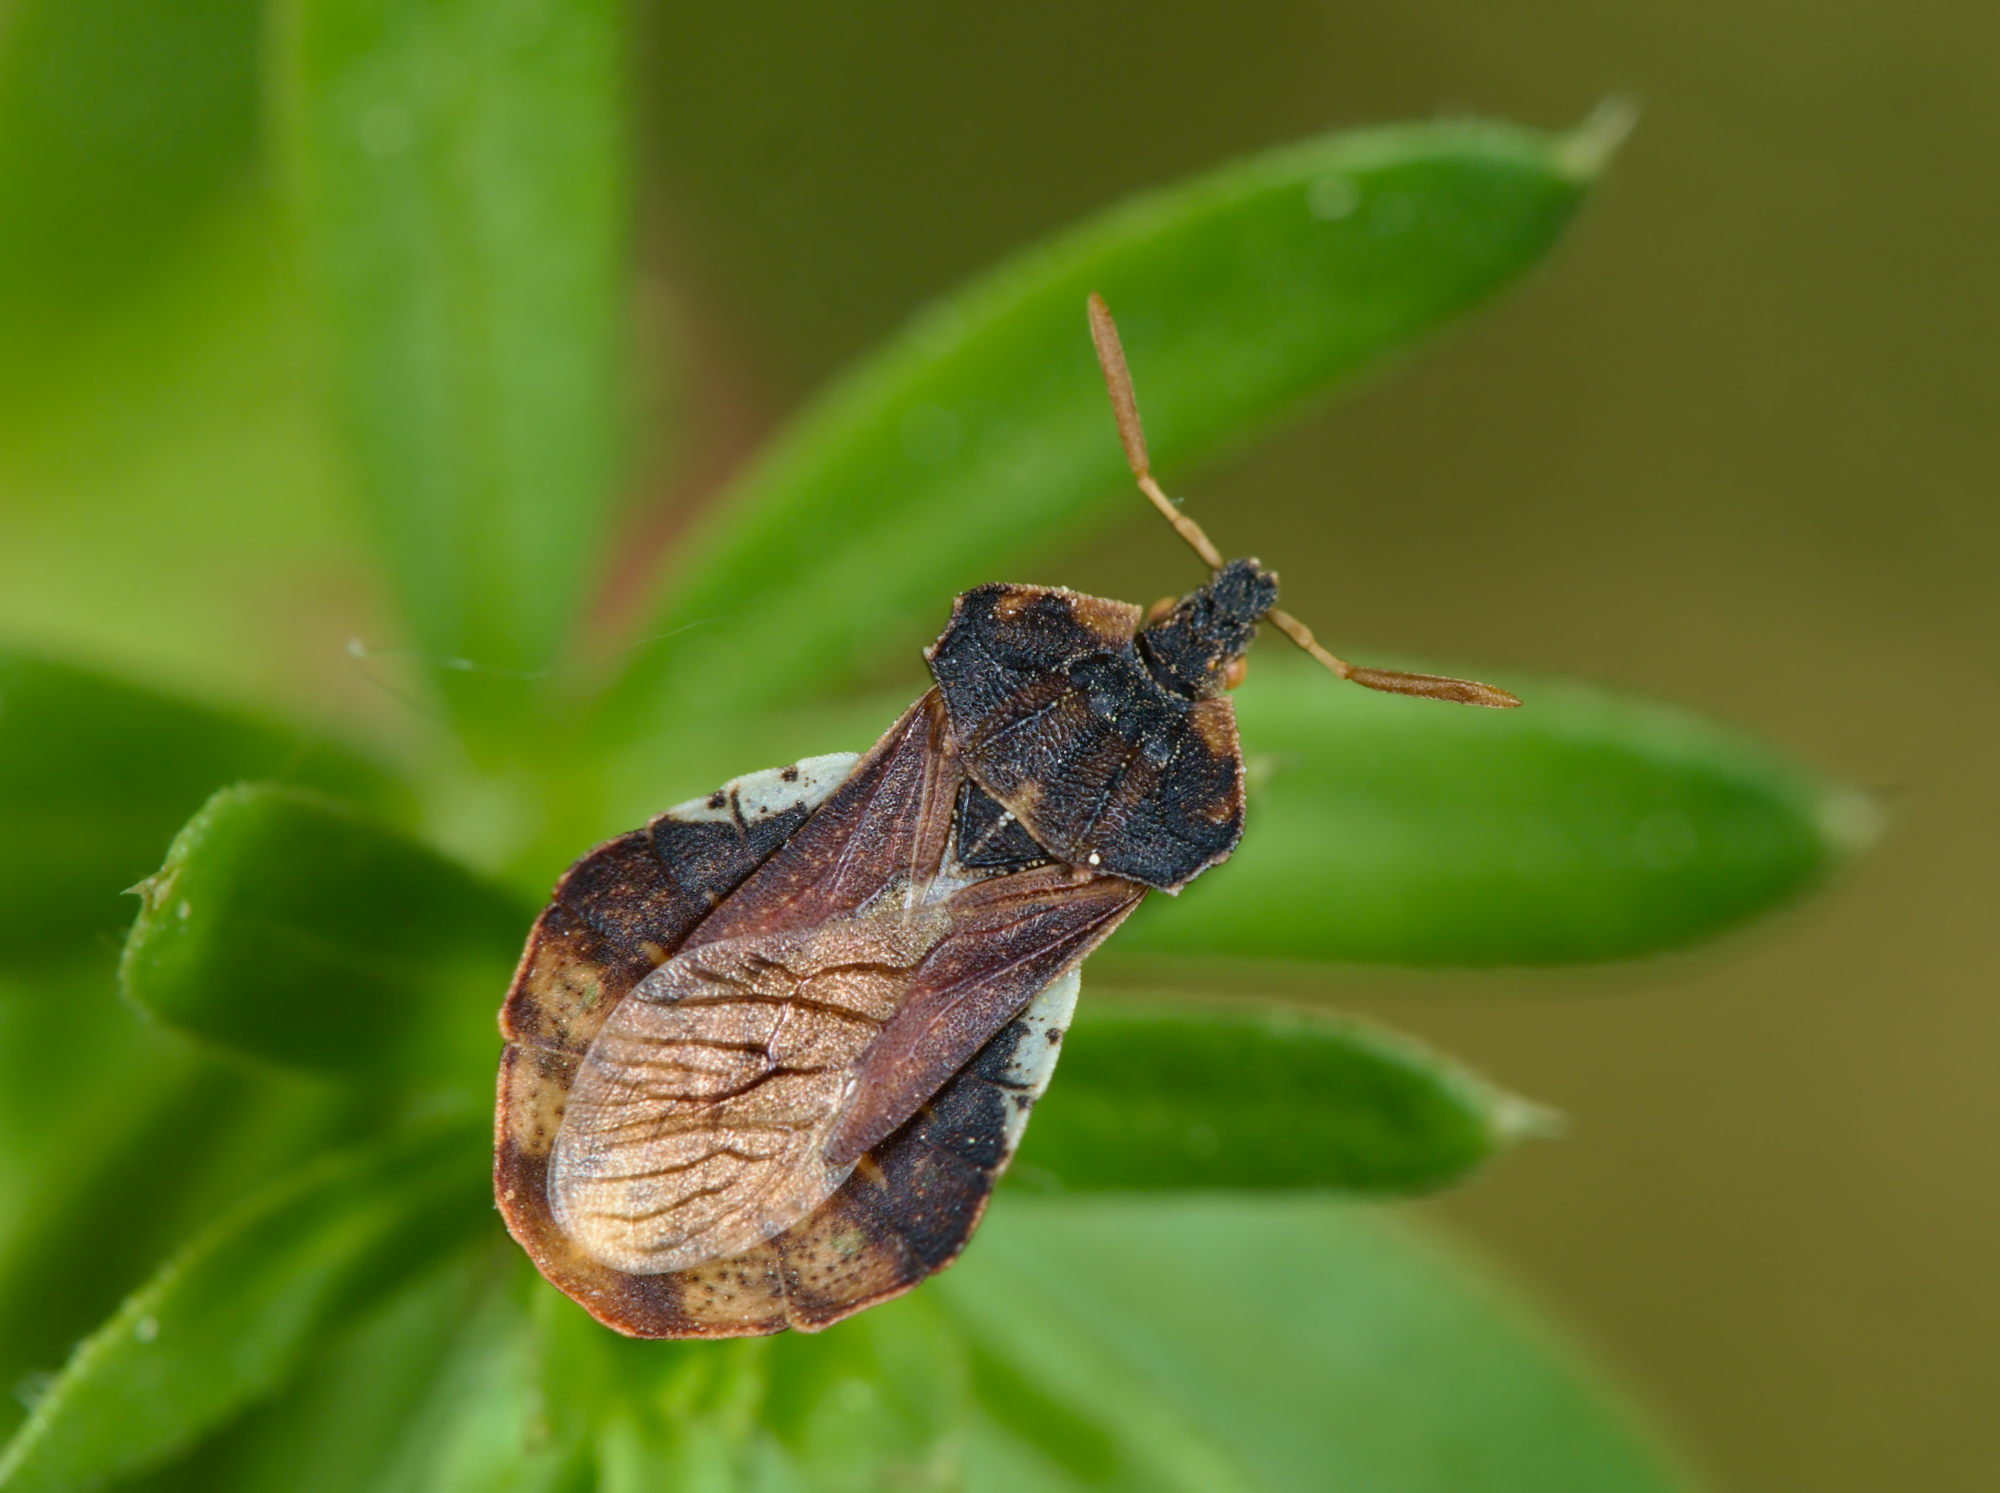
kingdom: Animalia
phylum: Arthropoda
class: Insecta
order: Hemiptera
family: Reduviidae
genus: Phymata
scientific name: Phymata crassipes
